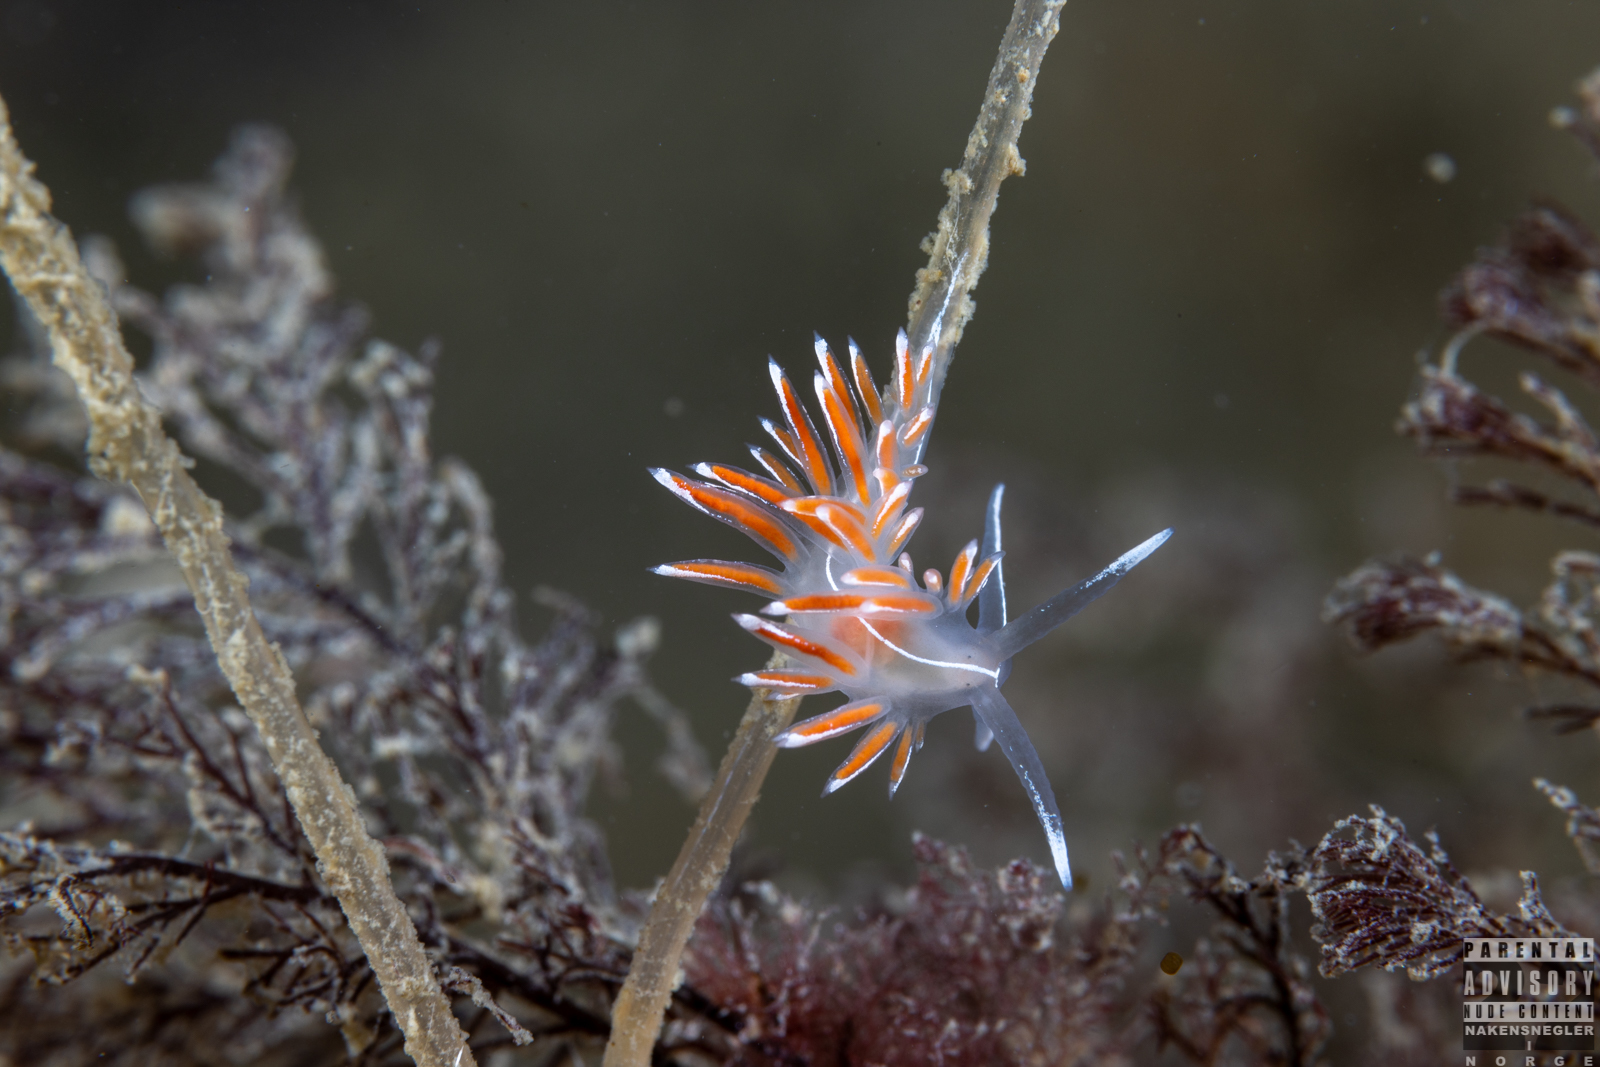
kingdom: Animalia
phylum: Mollusca
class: Gastropoda
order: Nudibranchia
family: Coryphellidae
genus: Coryphella
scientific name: Coryphella lineata
